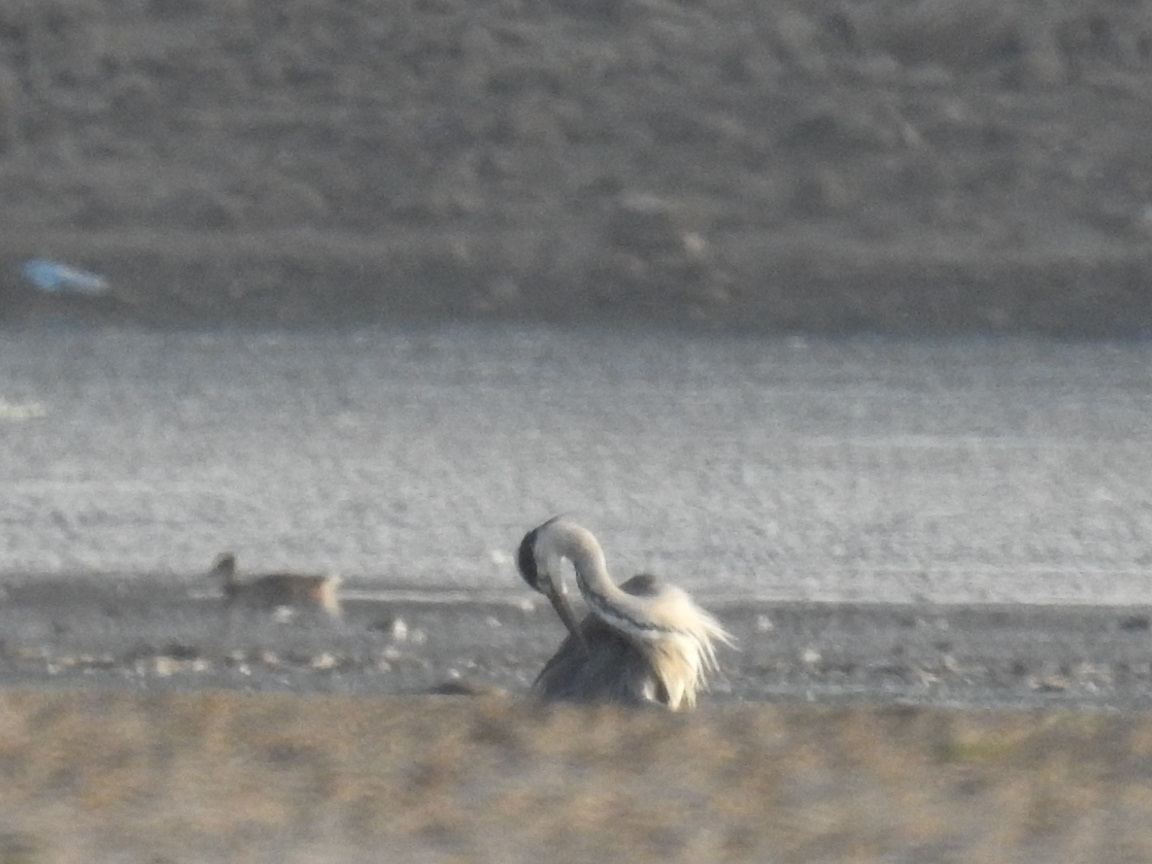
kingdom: Animalia
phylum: Chordata
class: Aves
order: Pelecaniformes
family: Ardeidae
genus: Ardea
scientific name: Ardea cinerea
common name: Grey heron
